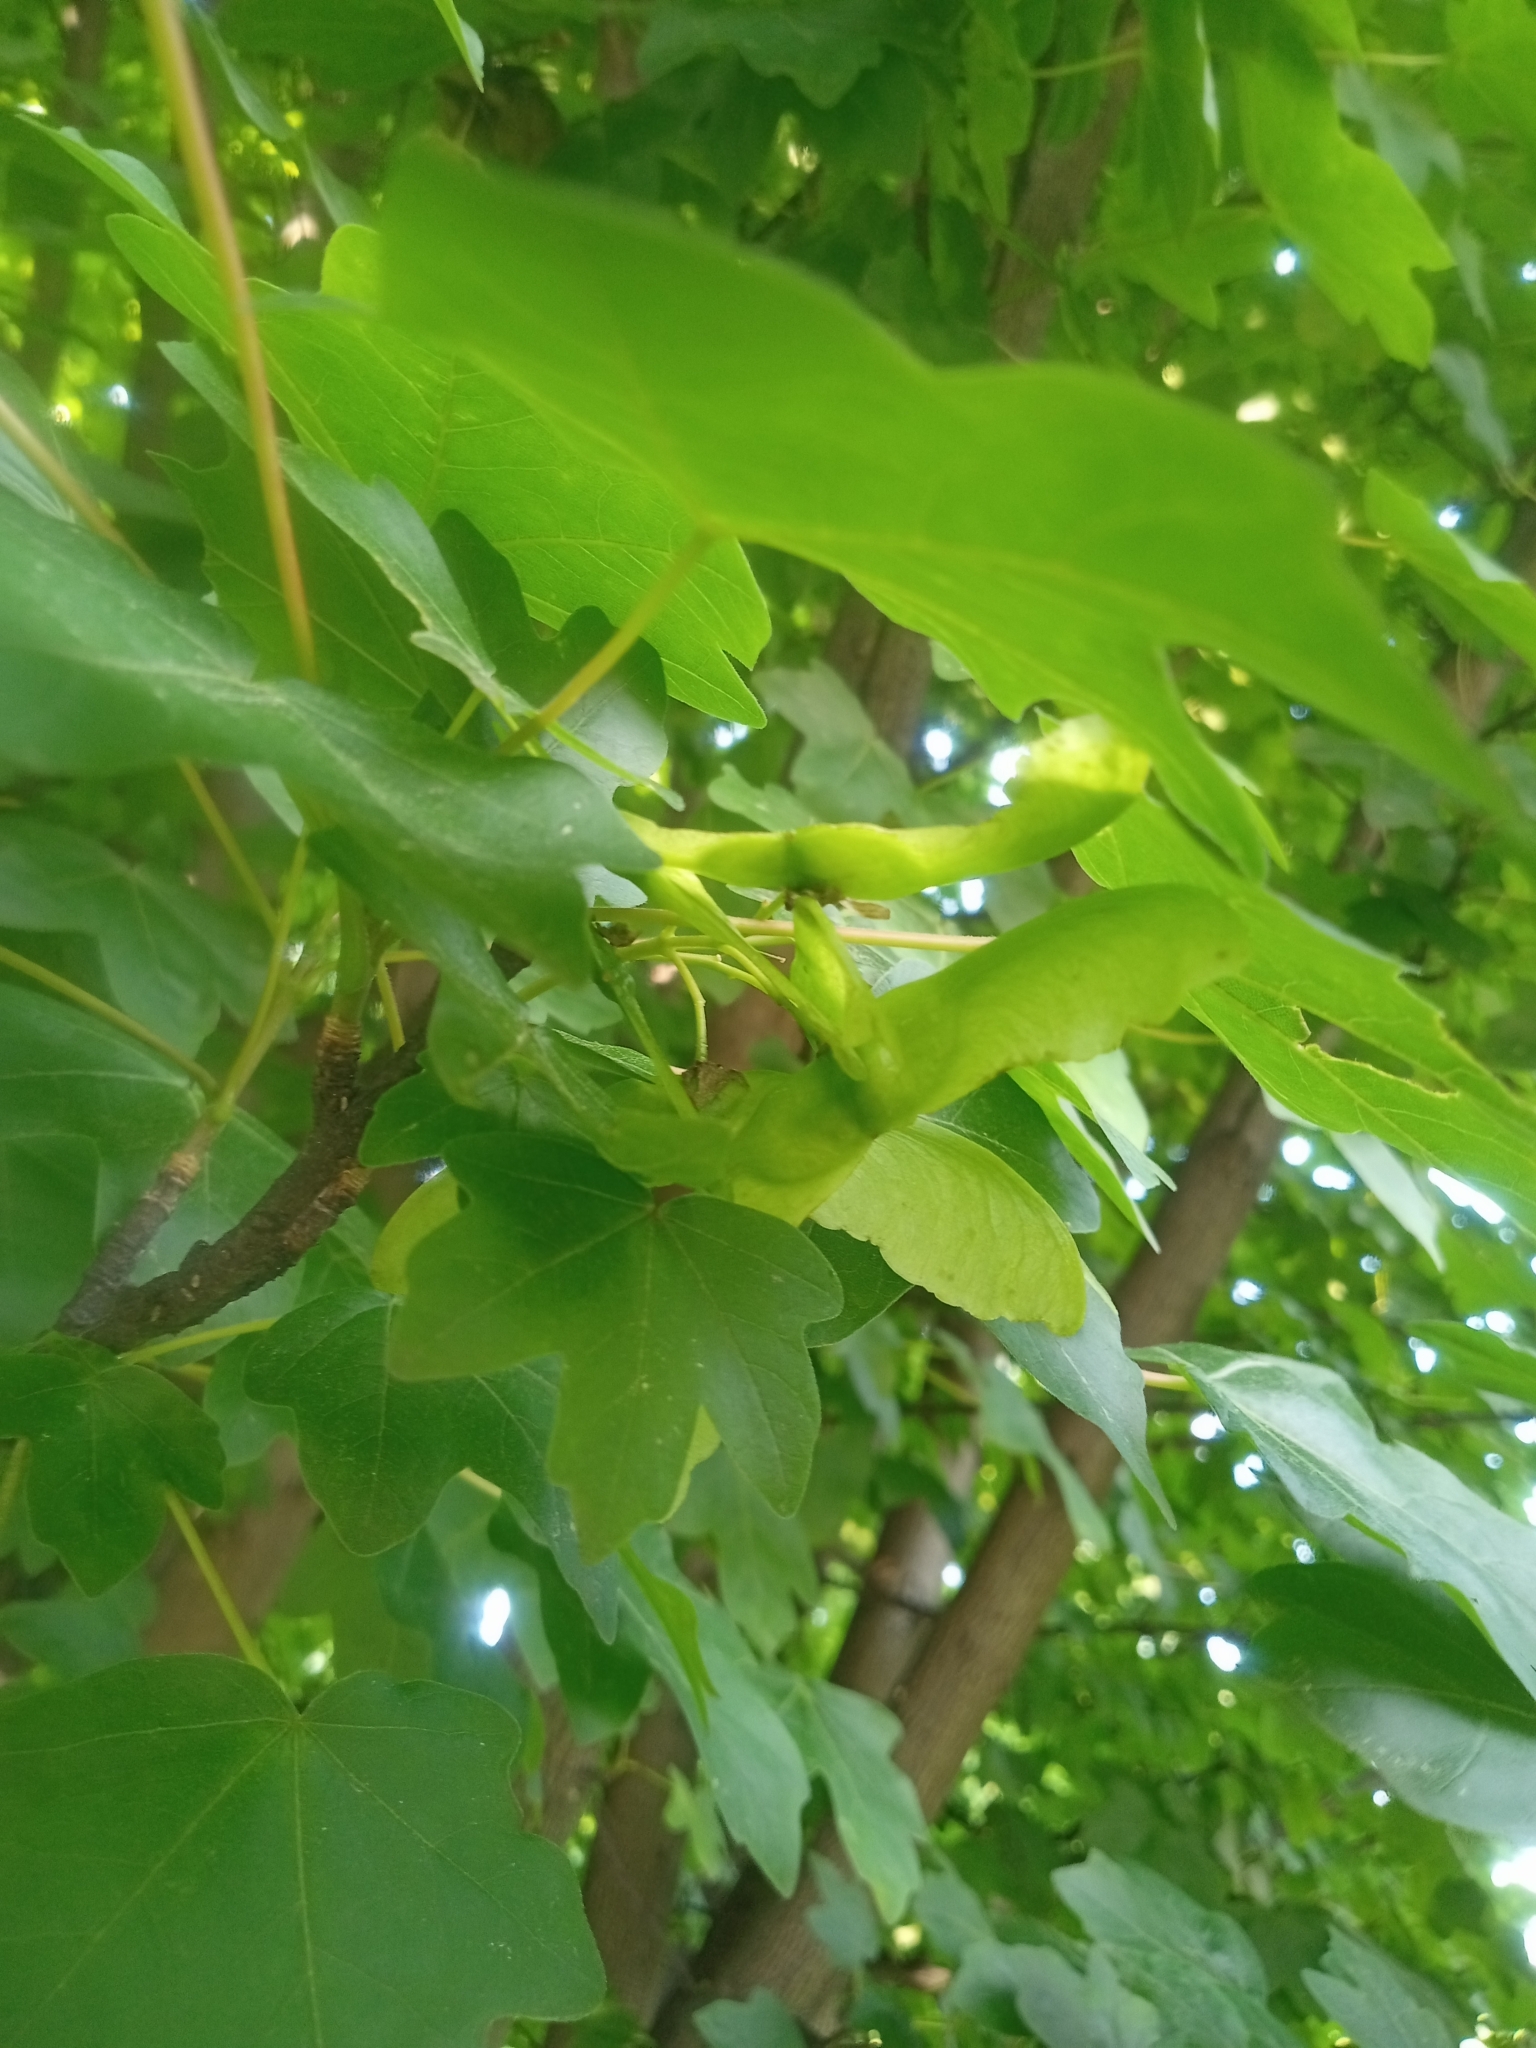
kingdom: Plantae
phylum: Tracheophyta
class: Magnoliopsida
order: Sapindales
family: Sapindaceae
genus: Acer
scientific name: Acer campestre
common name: Field maple
